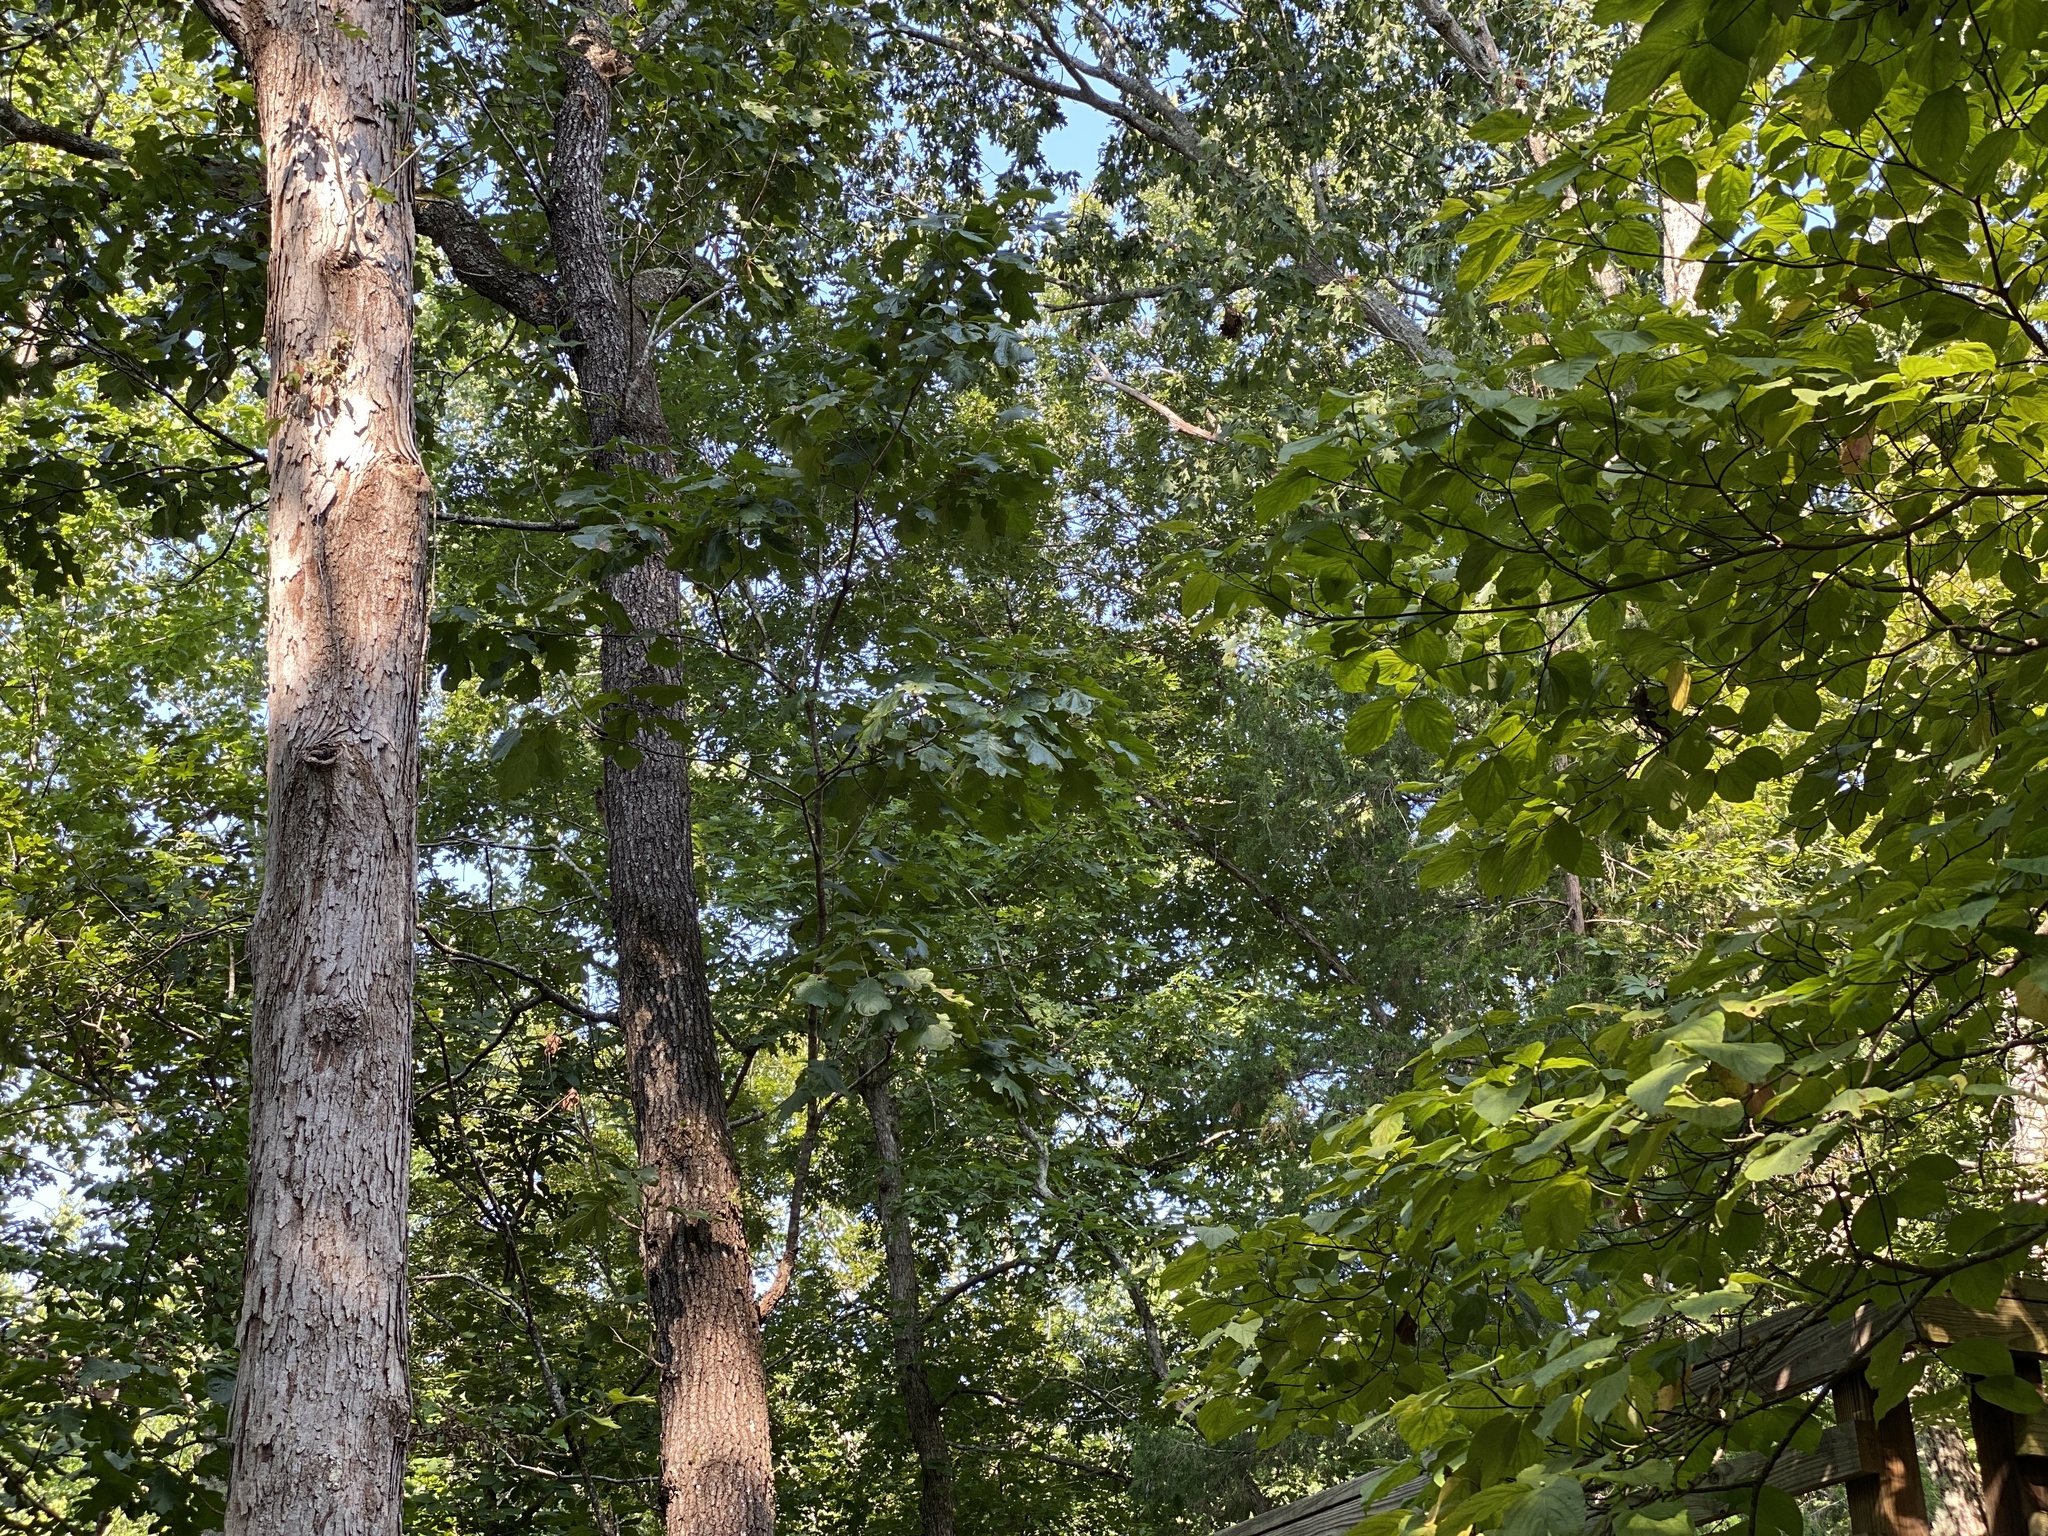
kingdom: Animalia
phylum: Chordata
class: Aves
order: Passeriformes
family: Troglodytidae
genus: Thryothorus
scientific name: Thryothorus ludovicianus
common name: Carolina wren
